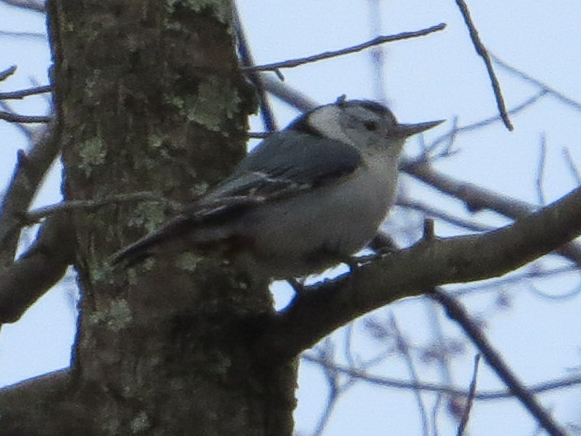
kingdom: Animalia
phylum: Chordata
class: Aves
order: Passeriformes
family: Sittidae
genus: Sitta
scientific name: Sitta carolinensis
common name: White-breasted nuthatch
